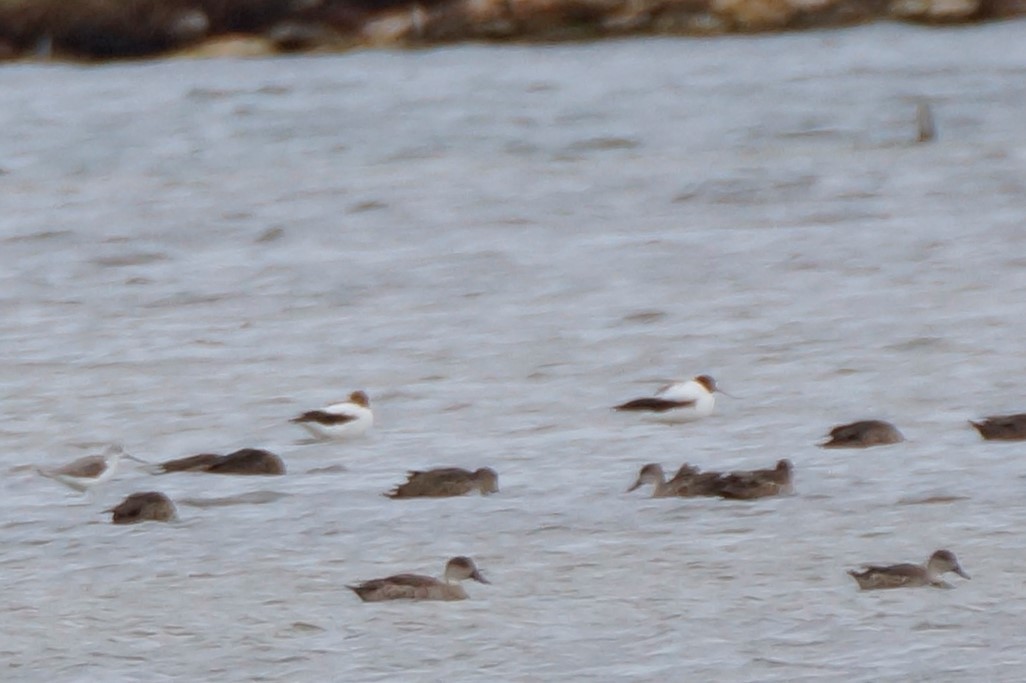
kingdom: Animalia
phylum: Chordata
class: Aves
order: Charadriiformes
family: Recurvirostridae
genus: Recurvirostra
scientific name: Recurvirostra novaehollandiae
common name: Red-necked avocet
